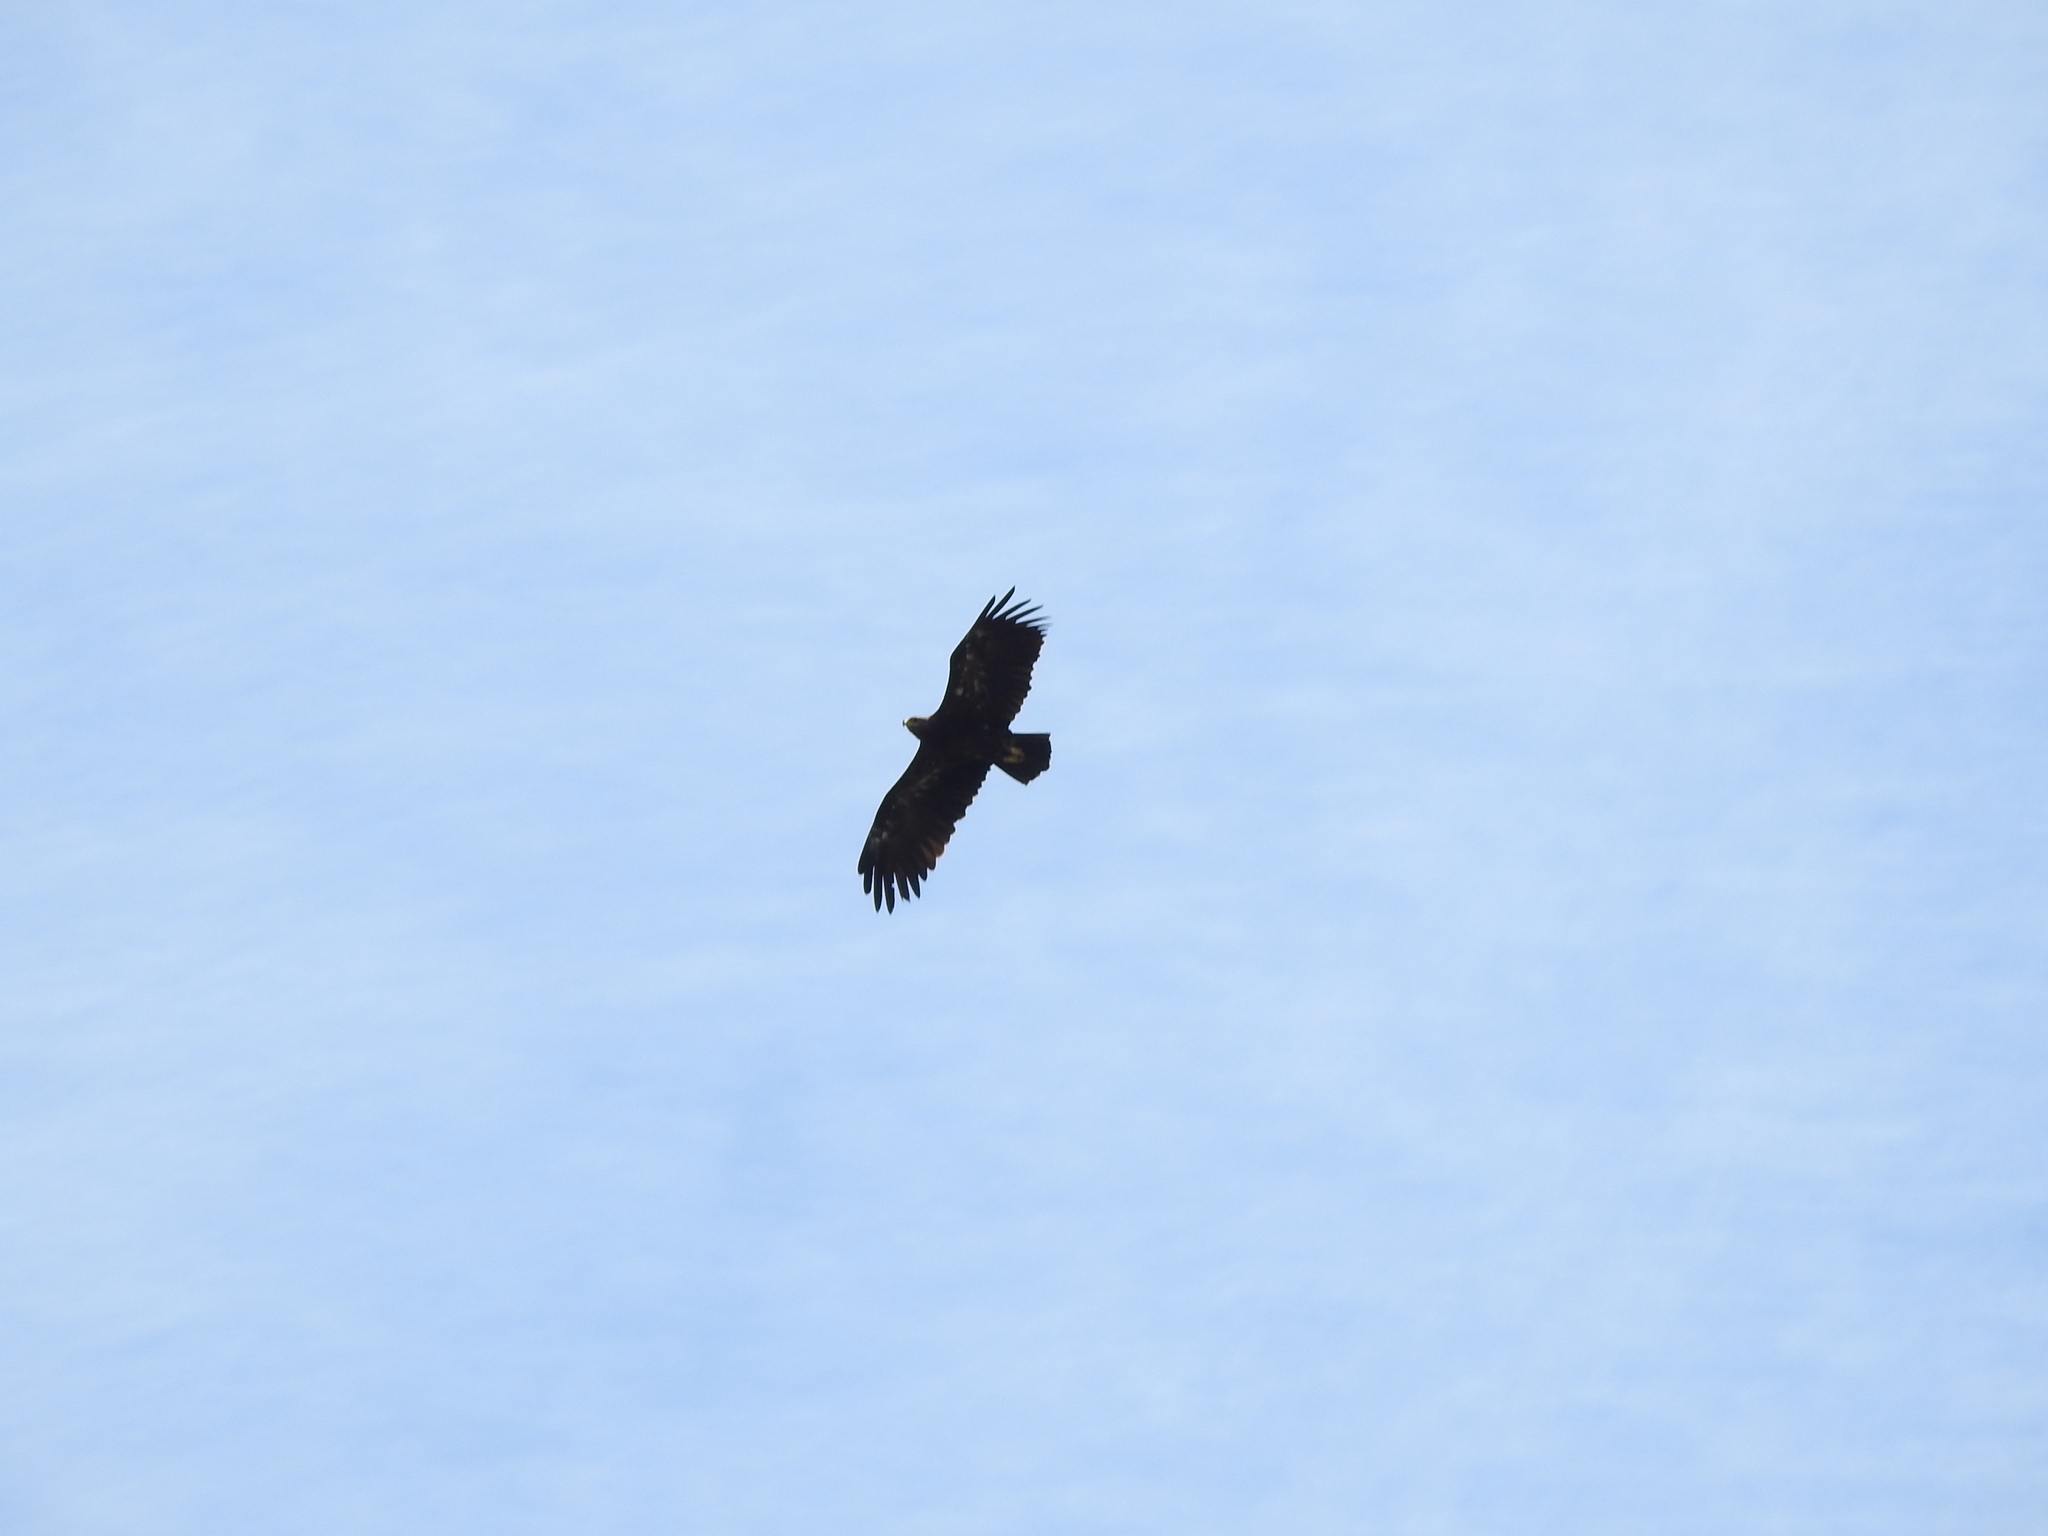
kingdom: Animalia
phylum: Chordata
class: Aves
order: Accipitriformes
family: Accipitridae
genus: Aquila
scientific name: Aquila clanga
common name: Greater spotted eagle
